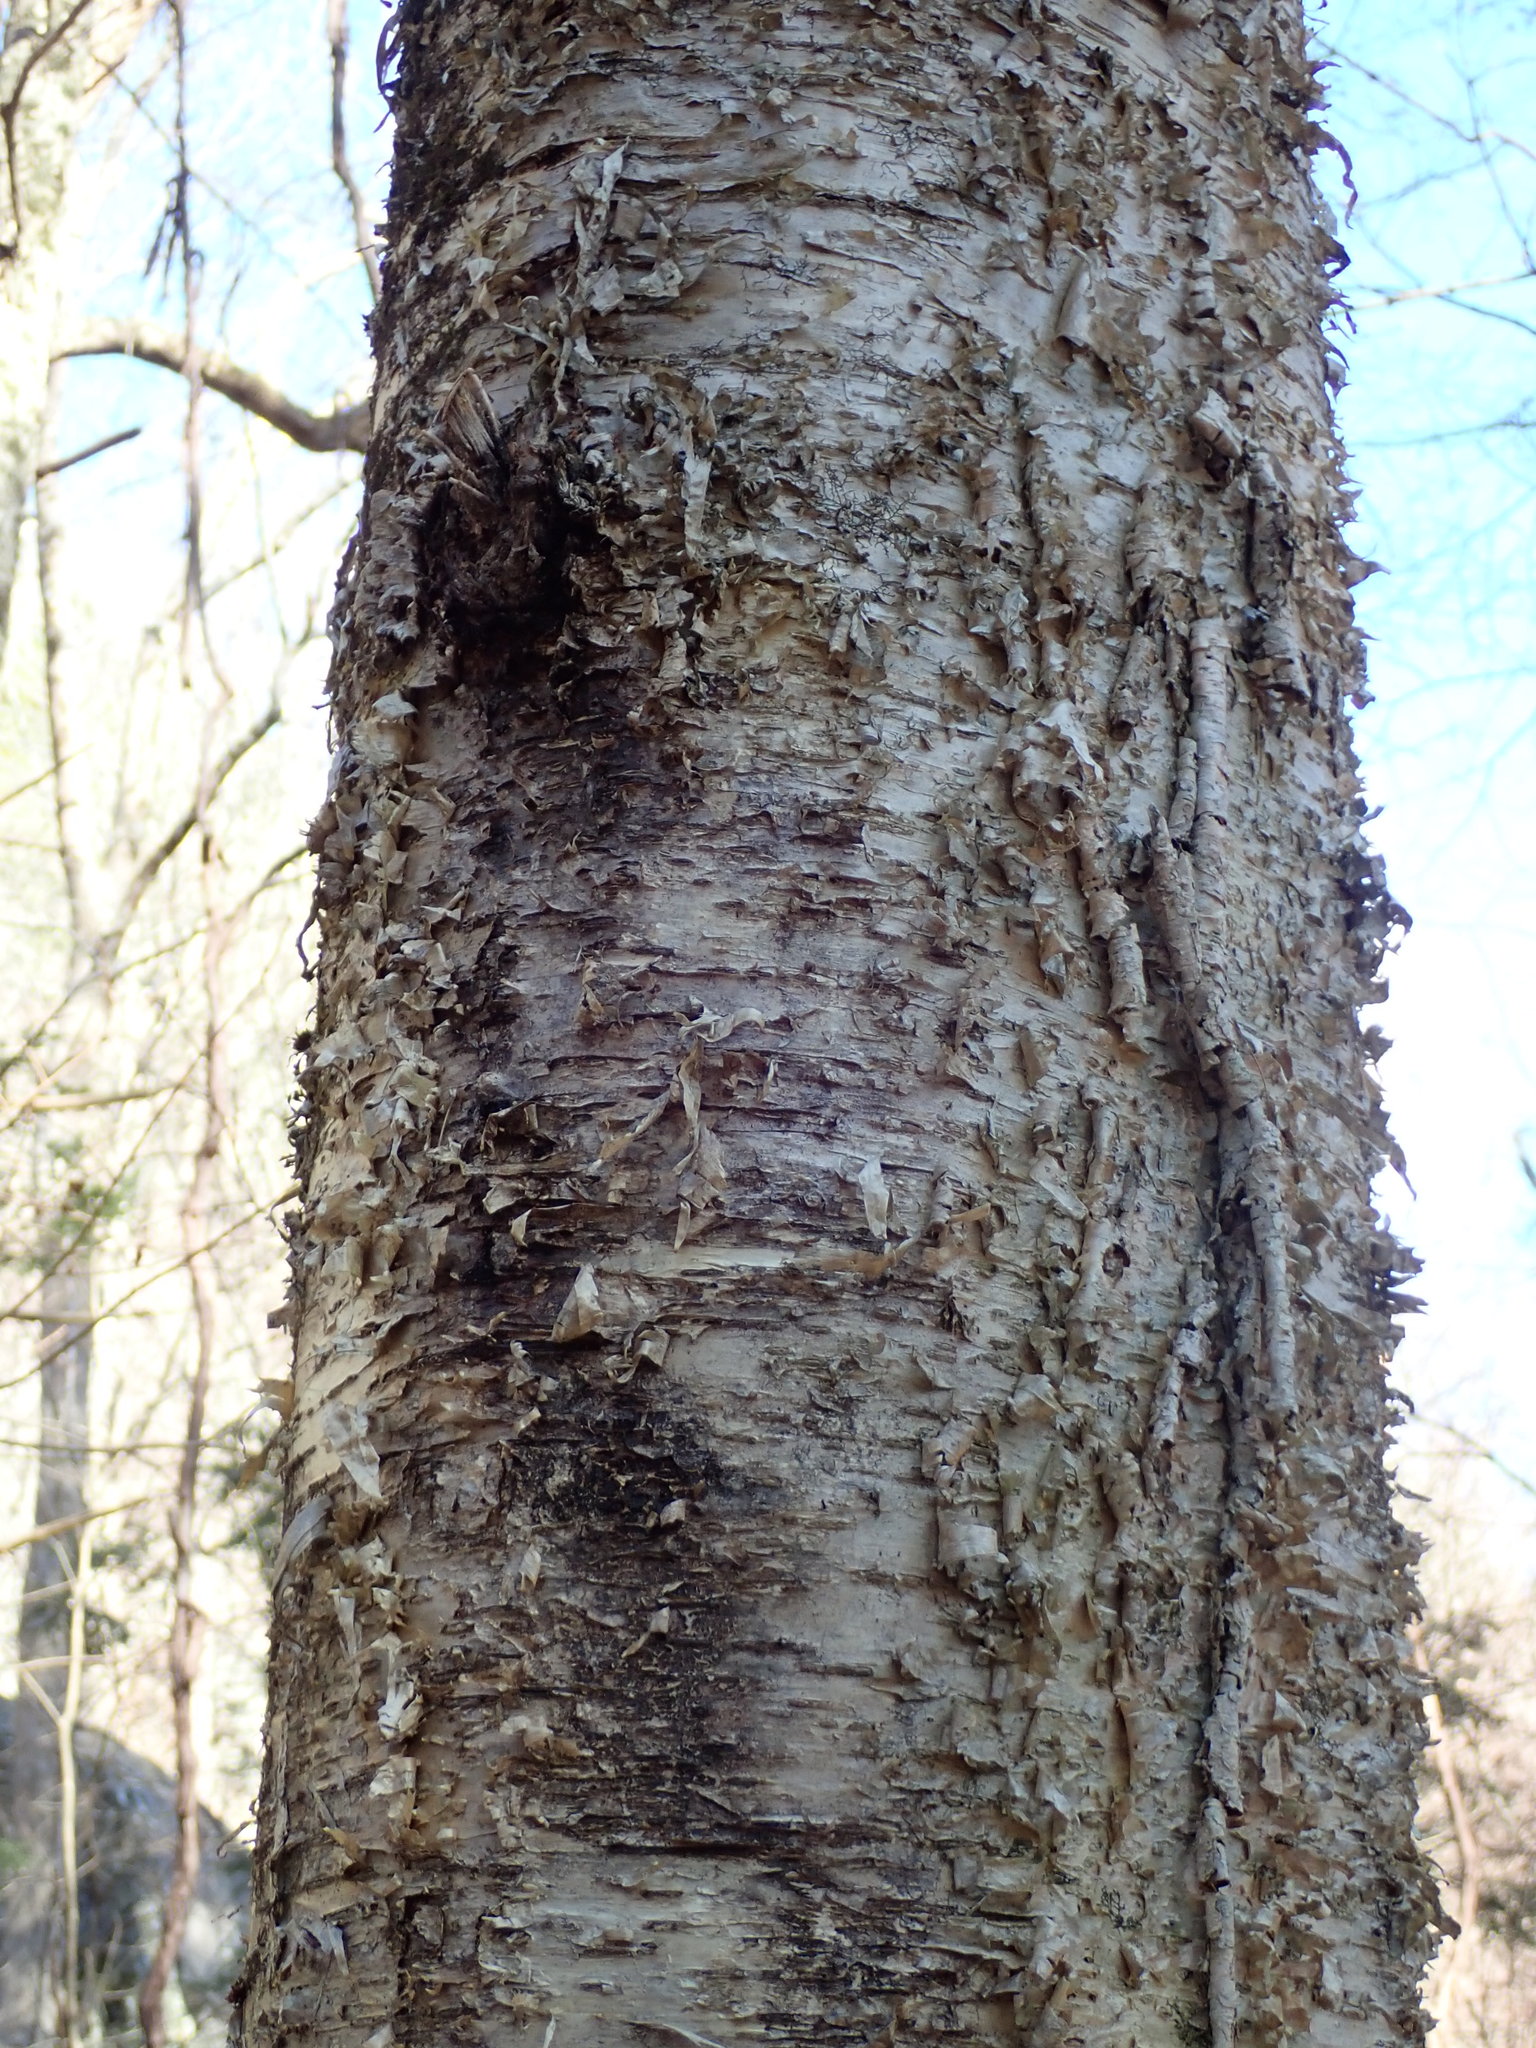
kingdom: Plantae
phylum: Tracheophyta
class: Magnoliopsida
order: Fagales
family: Betulaceae
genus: Betula
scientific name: Betula alleghaniensis
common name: Yellow birch
